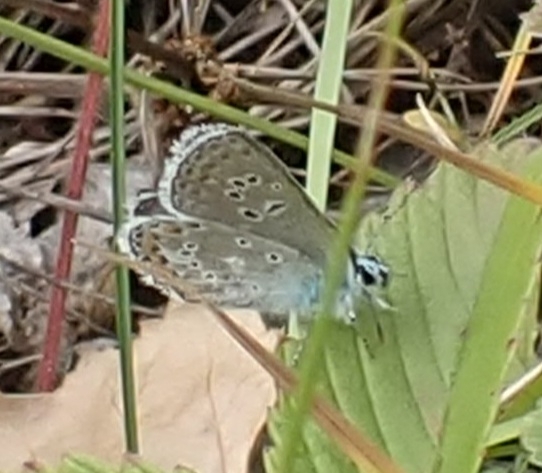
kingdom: Animalia
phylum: Arthropoda
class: Insecta
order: Lepidoptera
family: Lycaenidae
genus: Eumedonia
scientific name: Eumedonia eumedon
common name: Geranium argus
